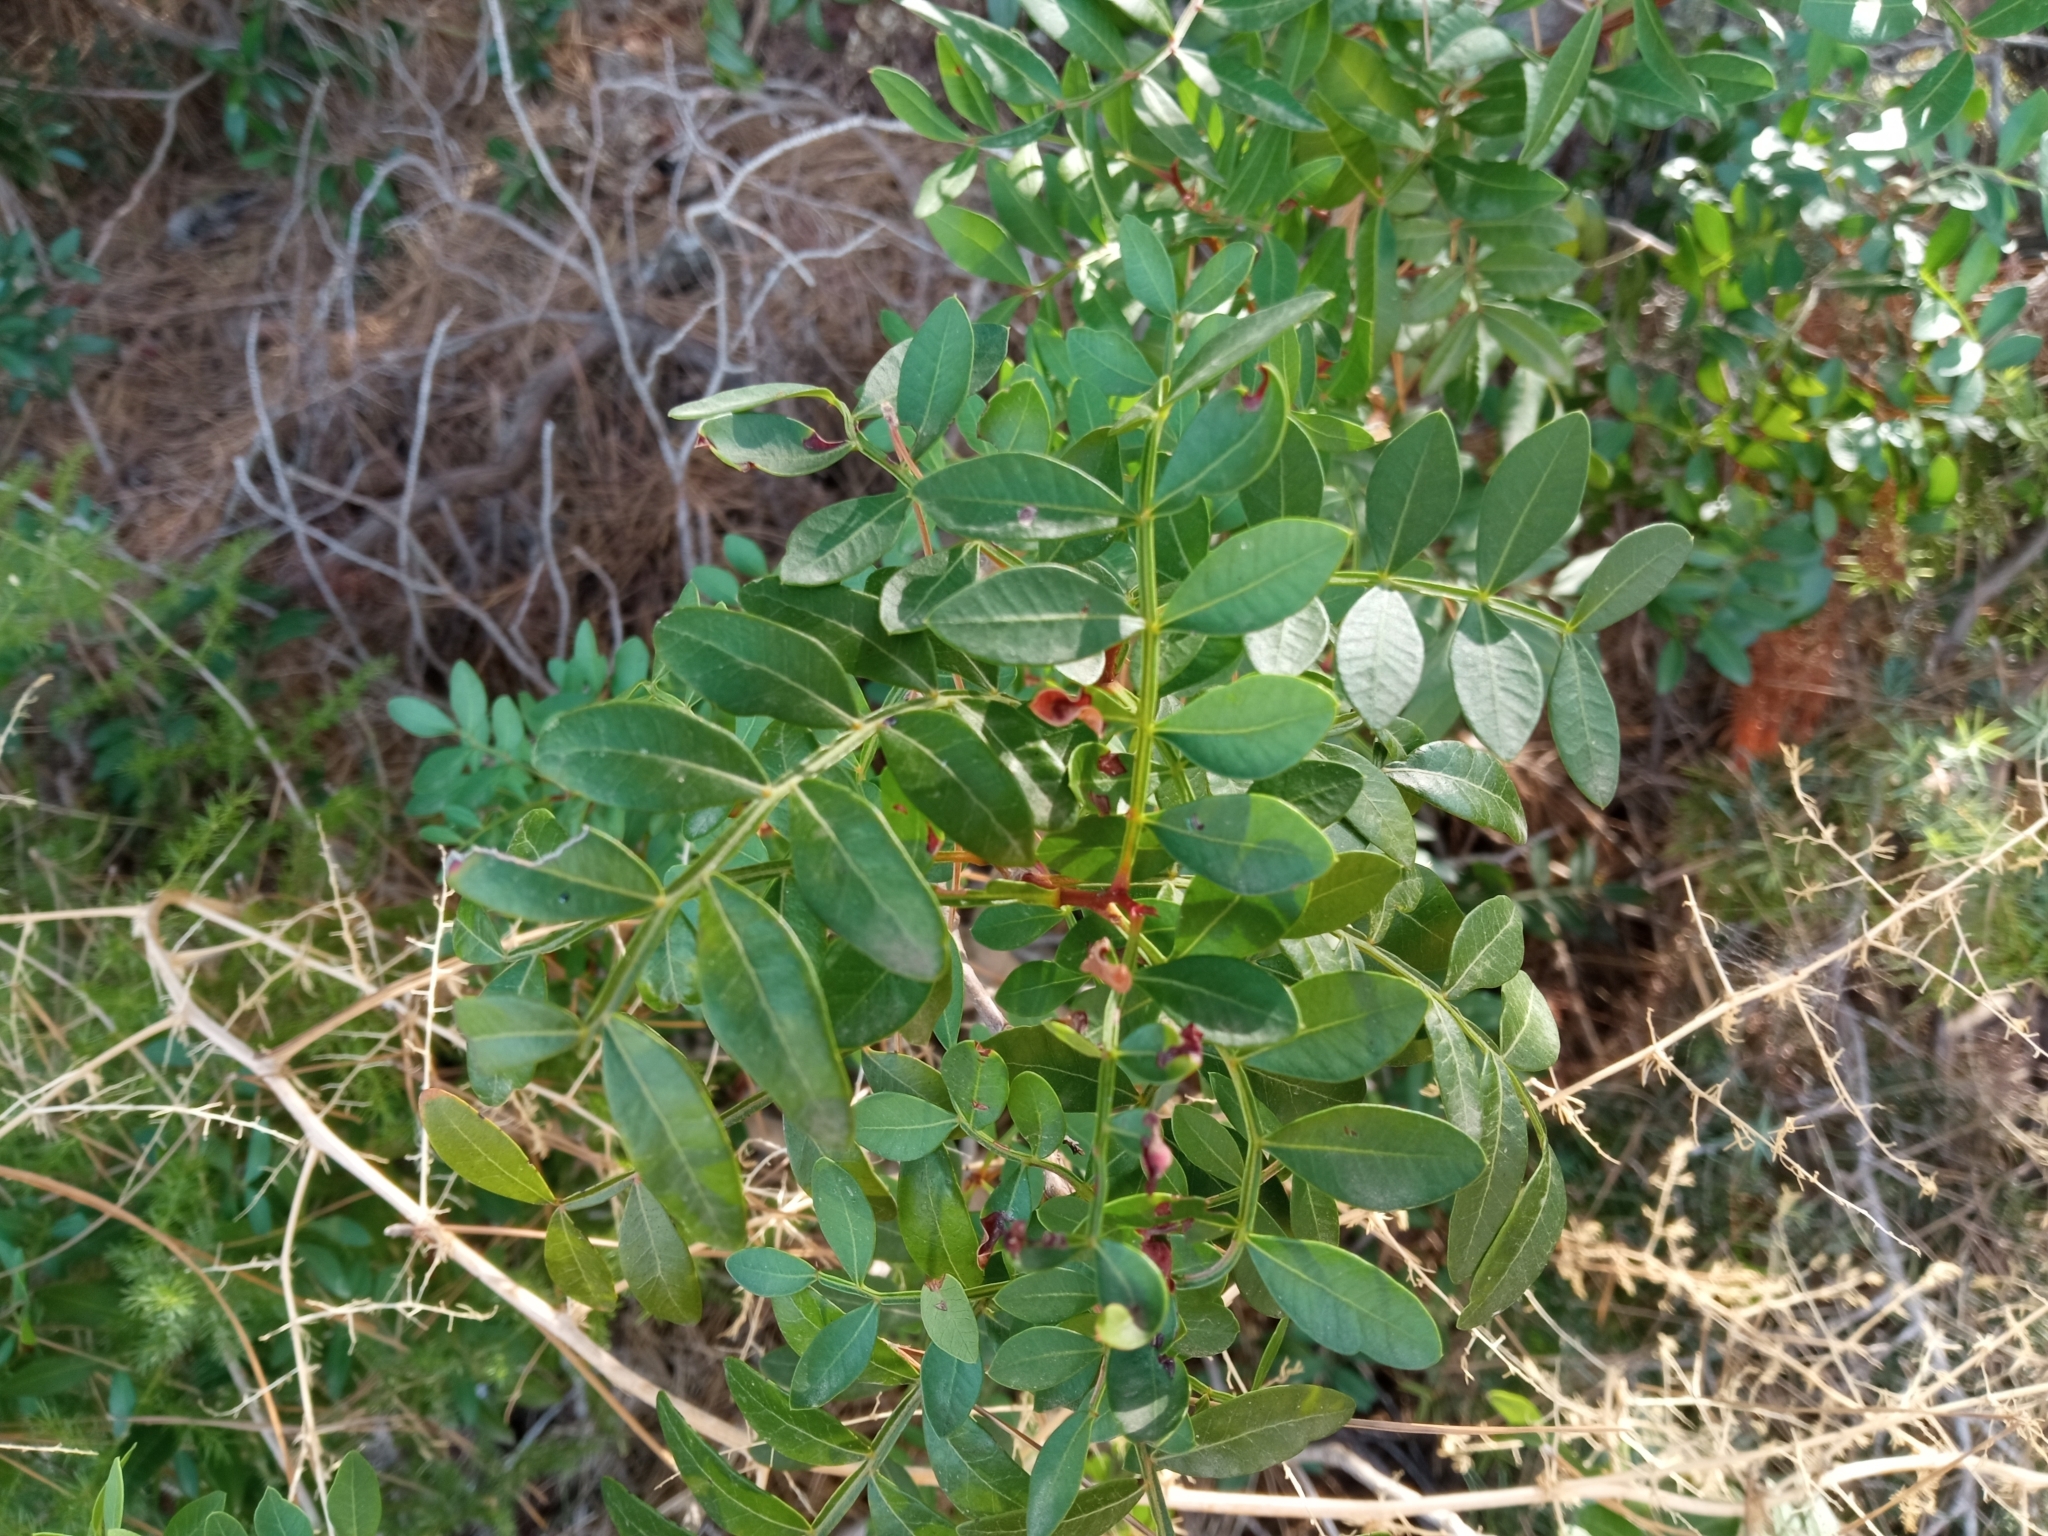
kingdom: Plantae
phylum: Tracheophyta
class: Magnoliopsida
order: Sapindales
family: Anacardiaceae
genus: Pistacia
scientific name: Pistacia lentiscus
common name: Lentisk
